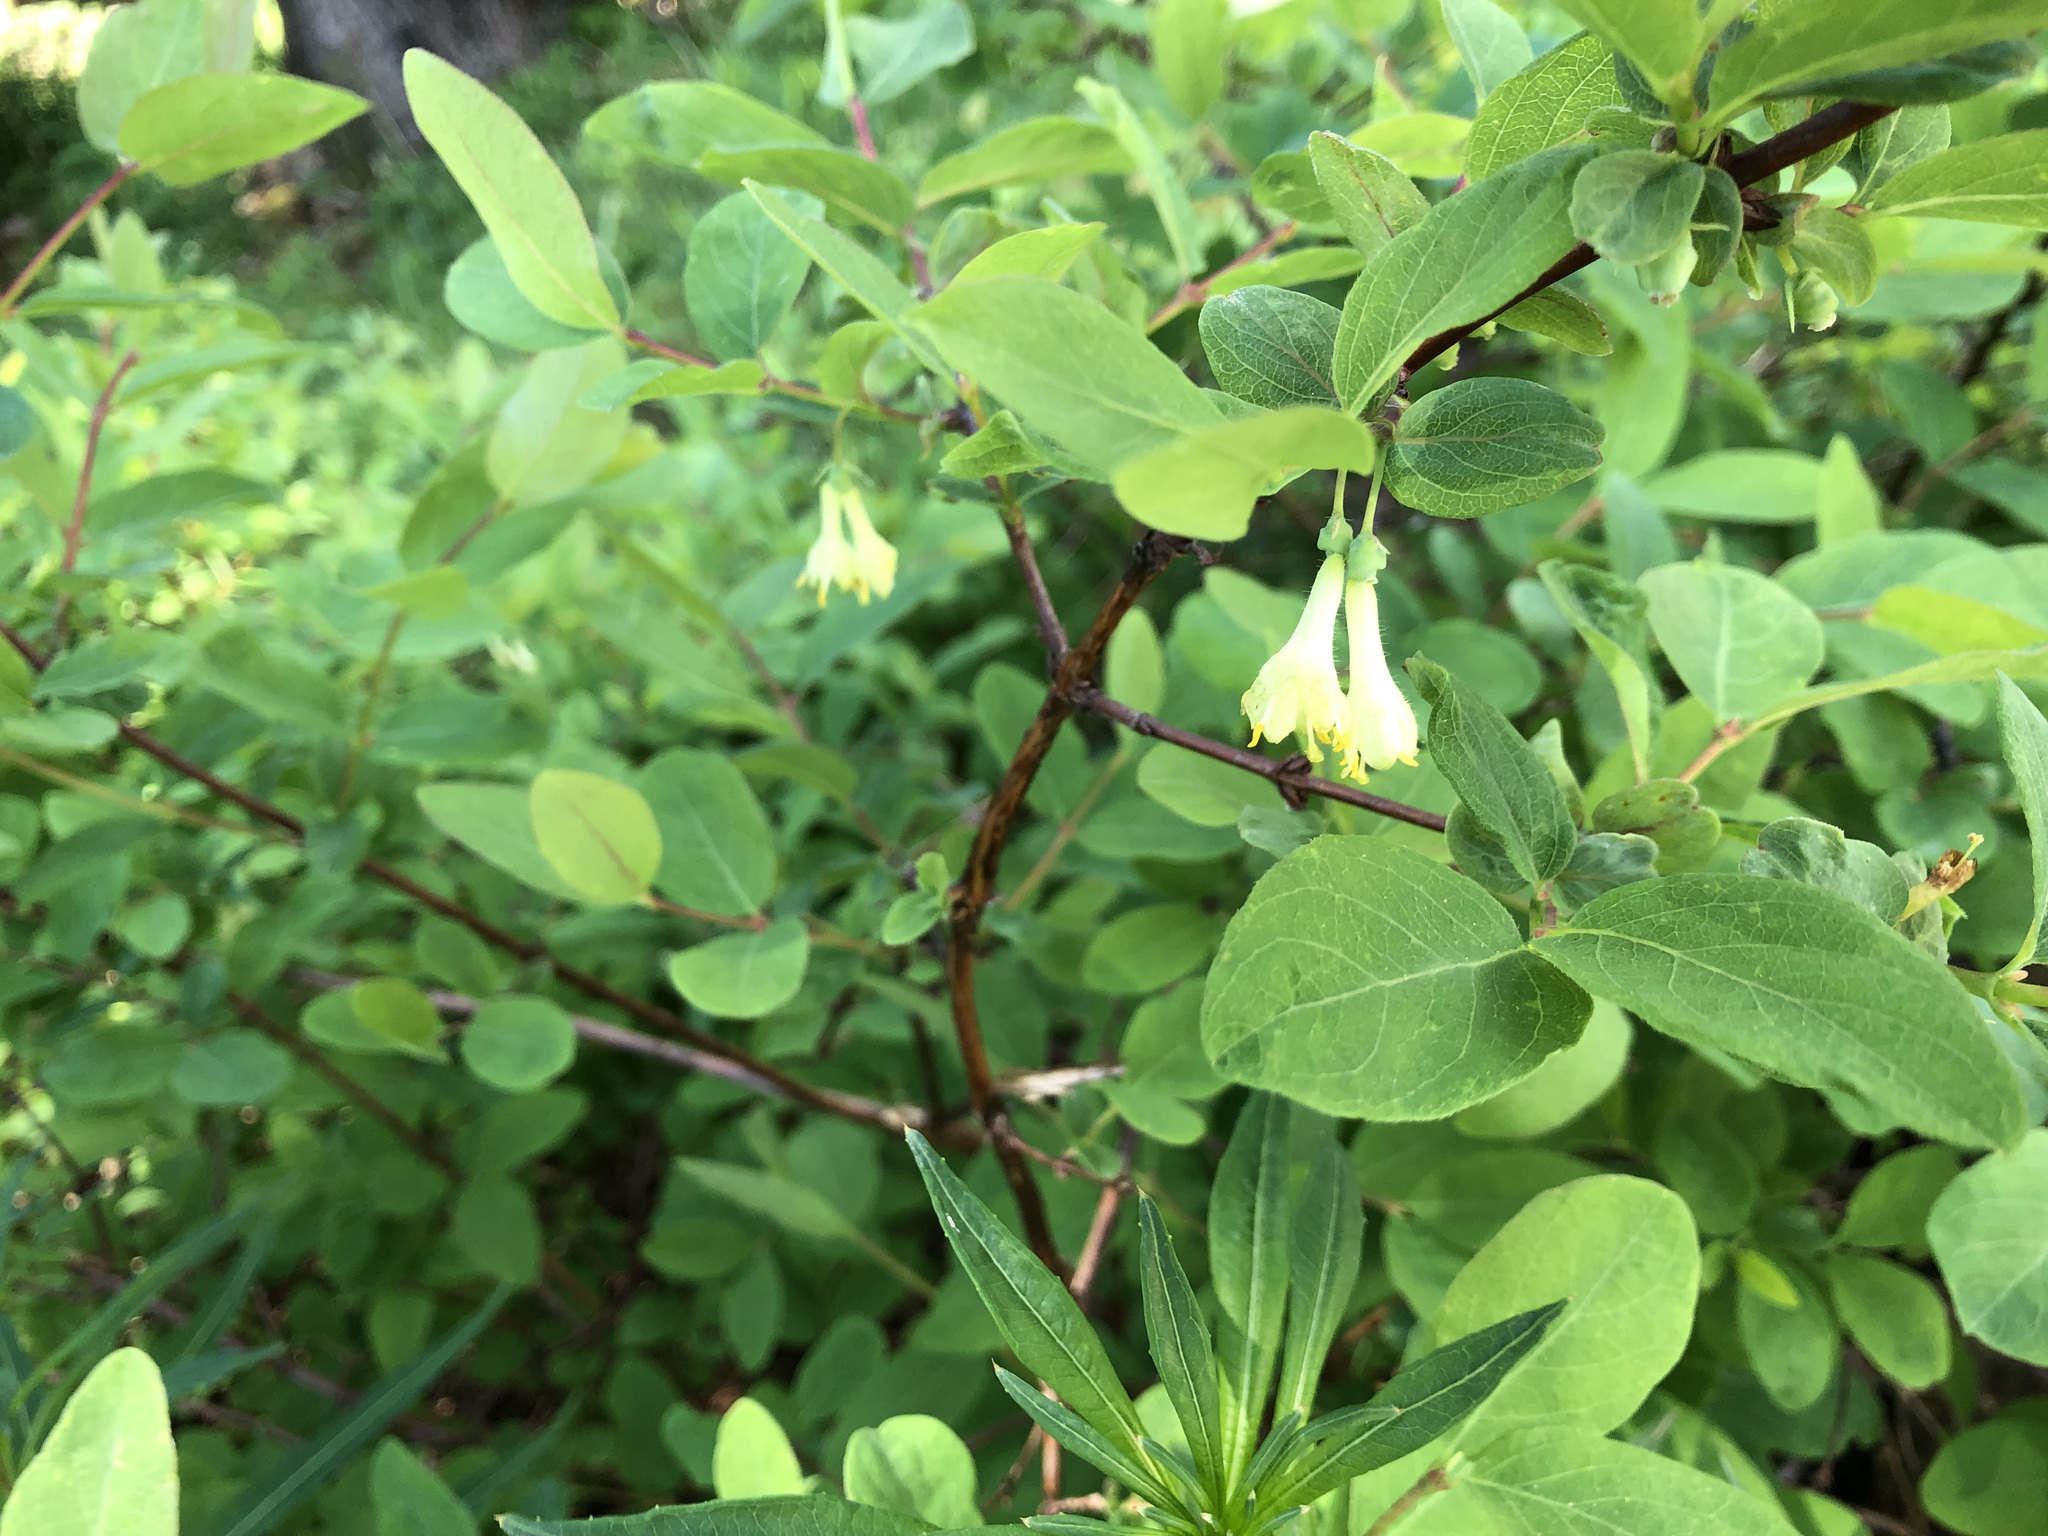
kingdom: Plantae
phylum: Tracheophyta
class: Magnoliopsida
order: Dipsacales
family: Caprifoliaceae
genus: Lonicera
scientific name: Lonicera caerulea
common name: Blue honeysuckle
